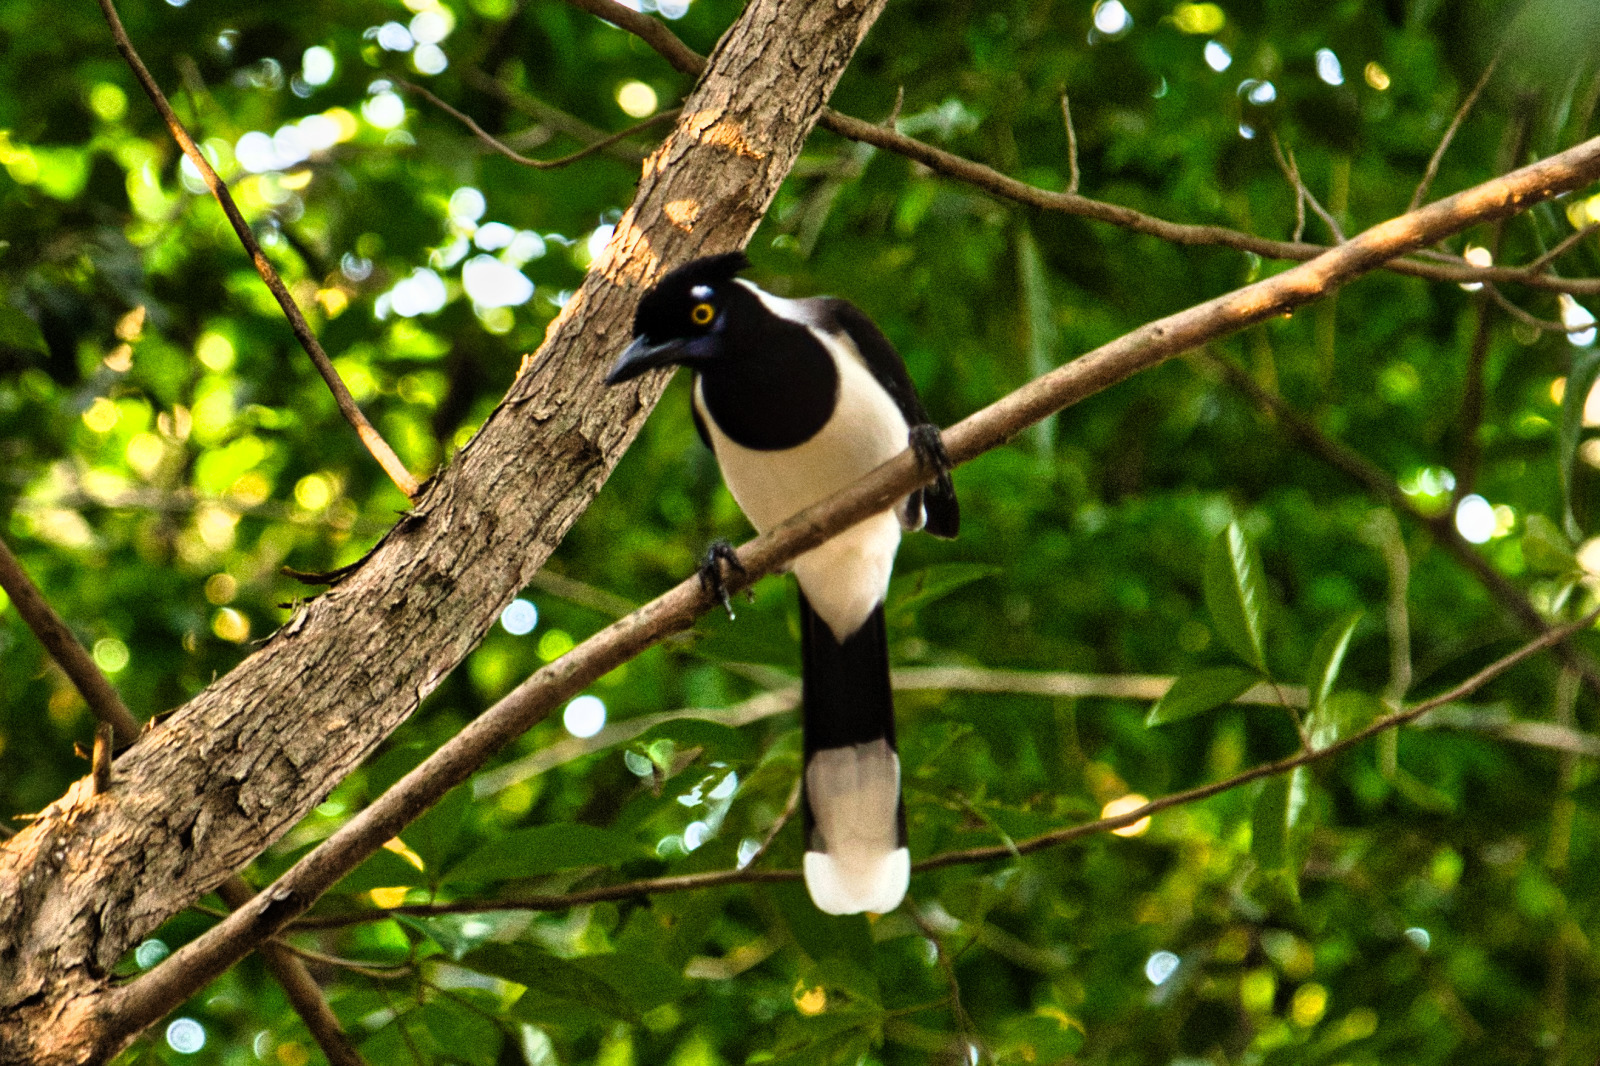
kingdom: Animalia
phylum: Chordata
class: Aves
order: Passeriformes
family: Corvidae
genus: Cyanocorax
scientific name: Cyanocorax cyanopogon
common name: White-naped jay
